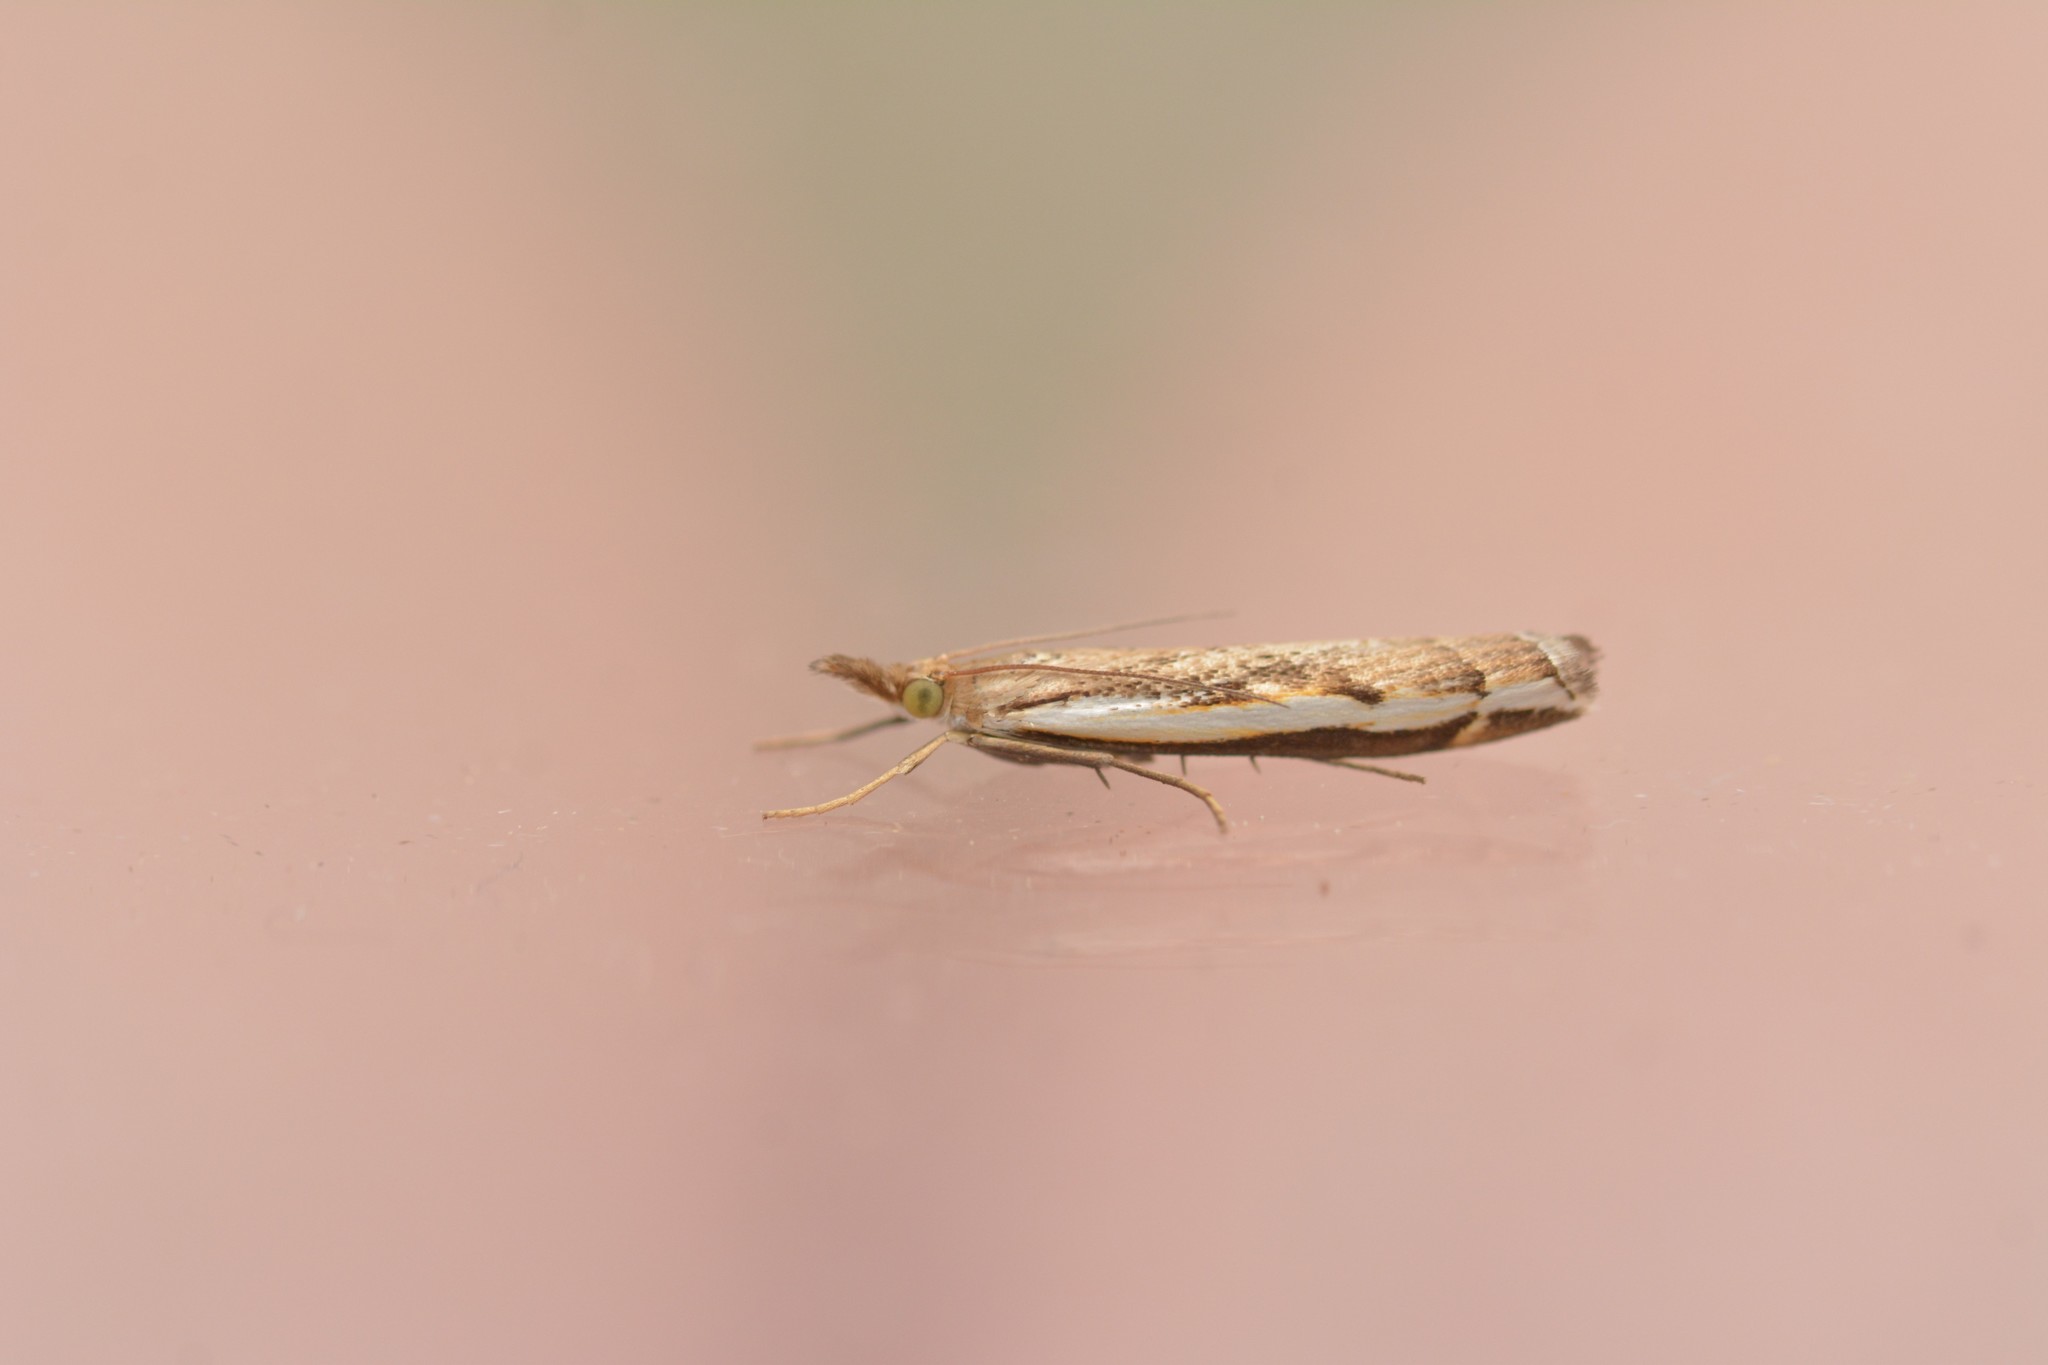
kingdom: Animalia
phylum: Arthropoda
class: Insecta
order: Lepidoptera
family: Crambidae
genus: Orocrambus
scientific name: Orocrambus flexuosellus
